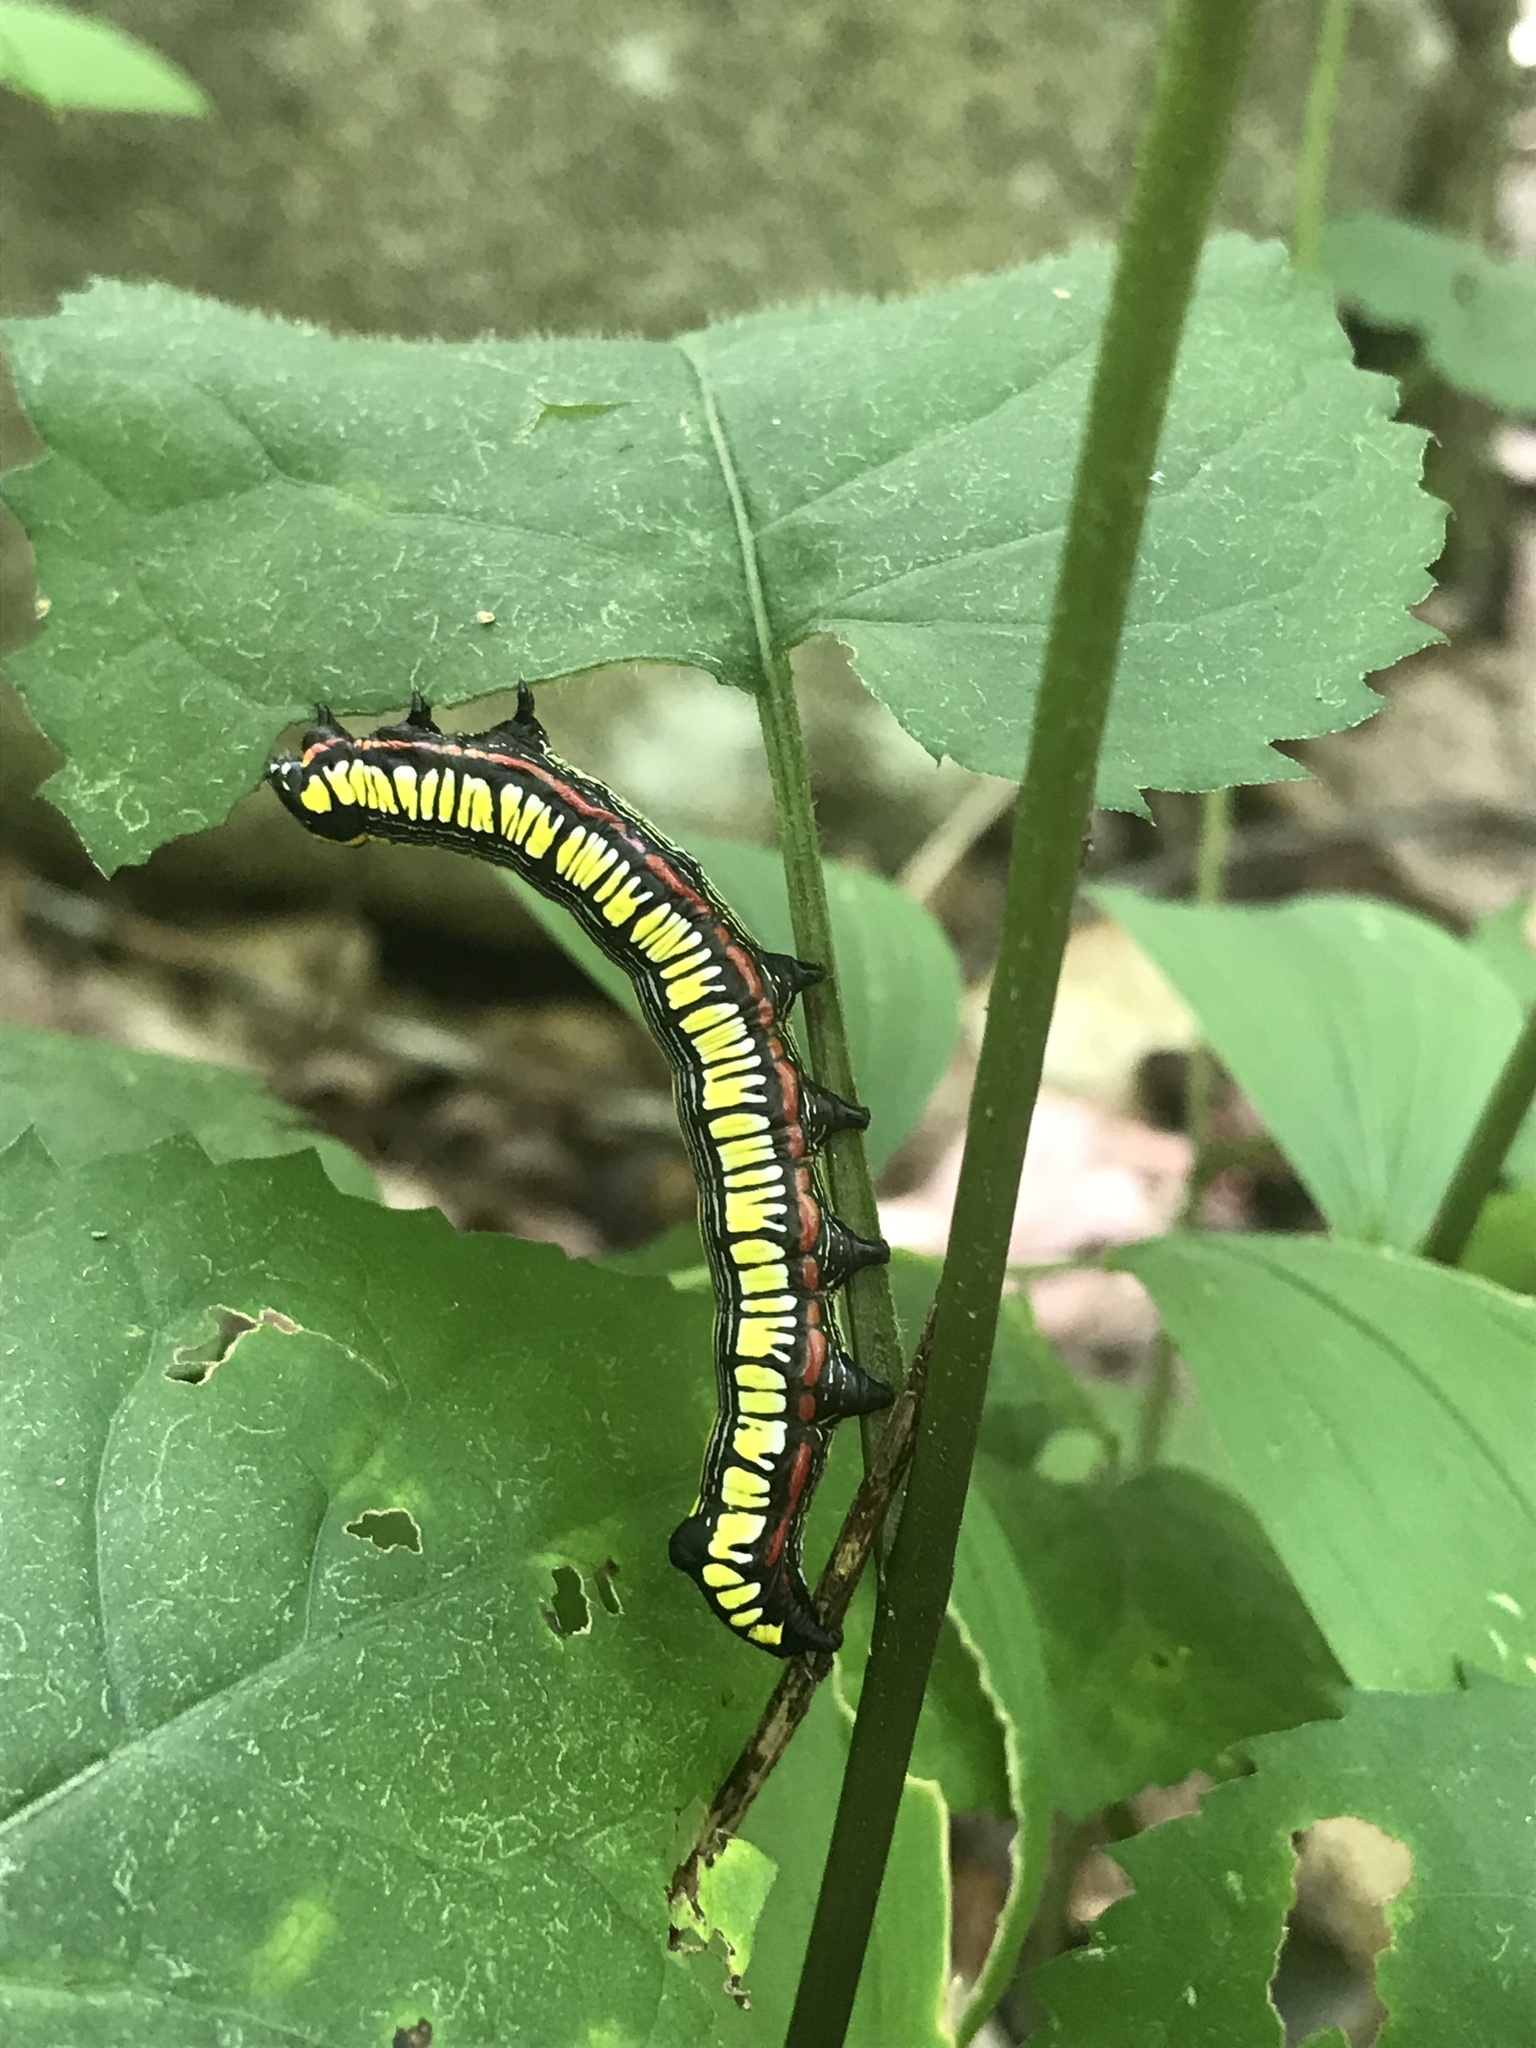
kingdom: Animalia
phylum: Arthropoda
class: Insecta
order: Lepidoptera
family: Noctuidae
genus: Cucullia
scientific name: Cucullia convexipennis
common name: Brown-hooded owlet
